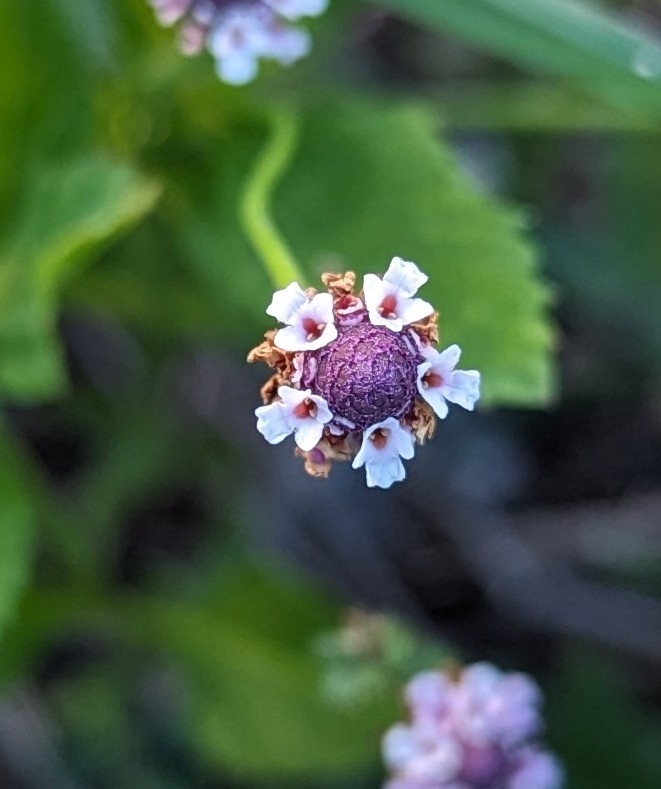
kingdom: Plantae
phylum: Tracheophyta
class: Magnoliopsida
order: Lamiales
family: Verbenaceae
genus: Phyla
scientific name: Phyla lanceolata
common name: Northern fogfruit
